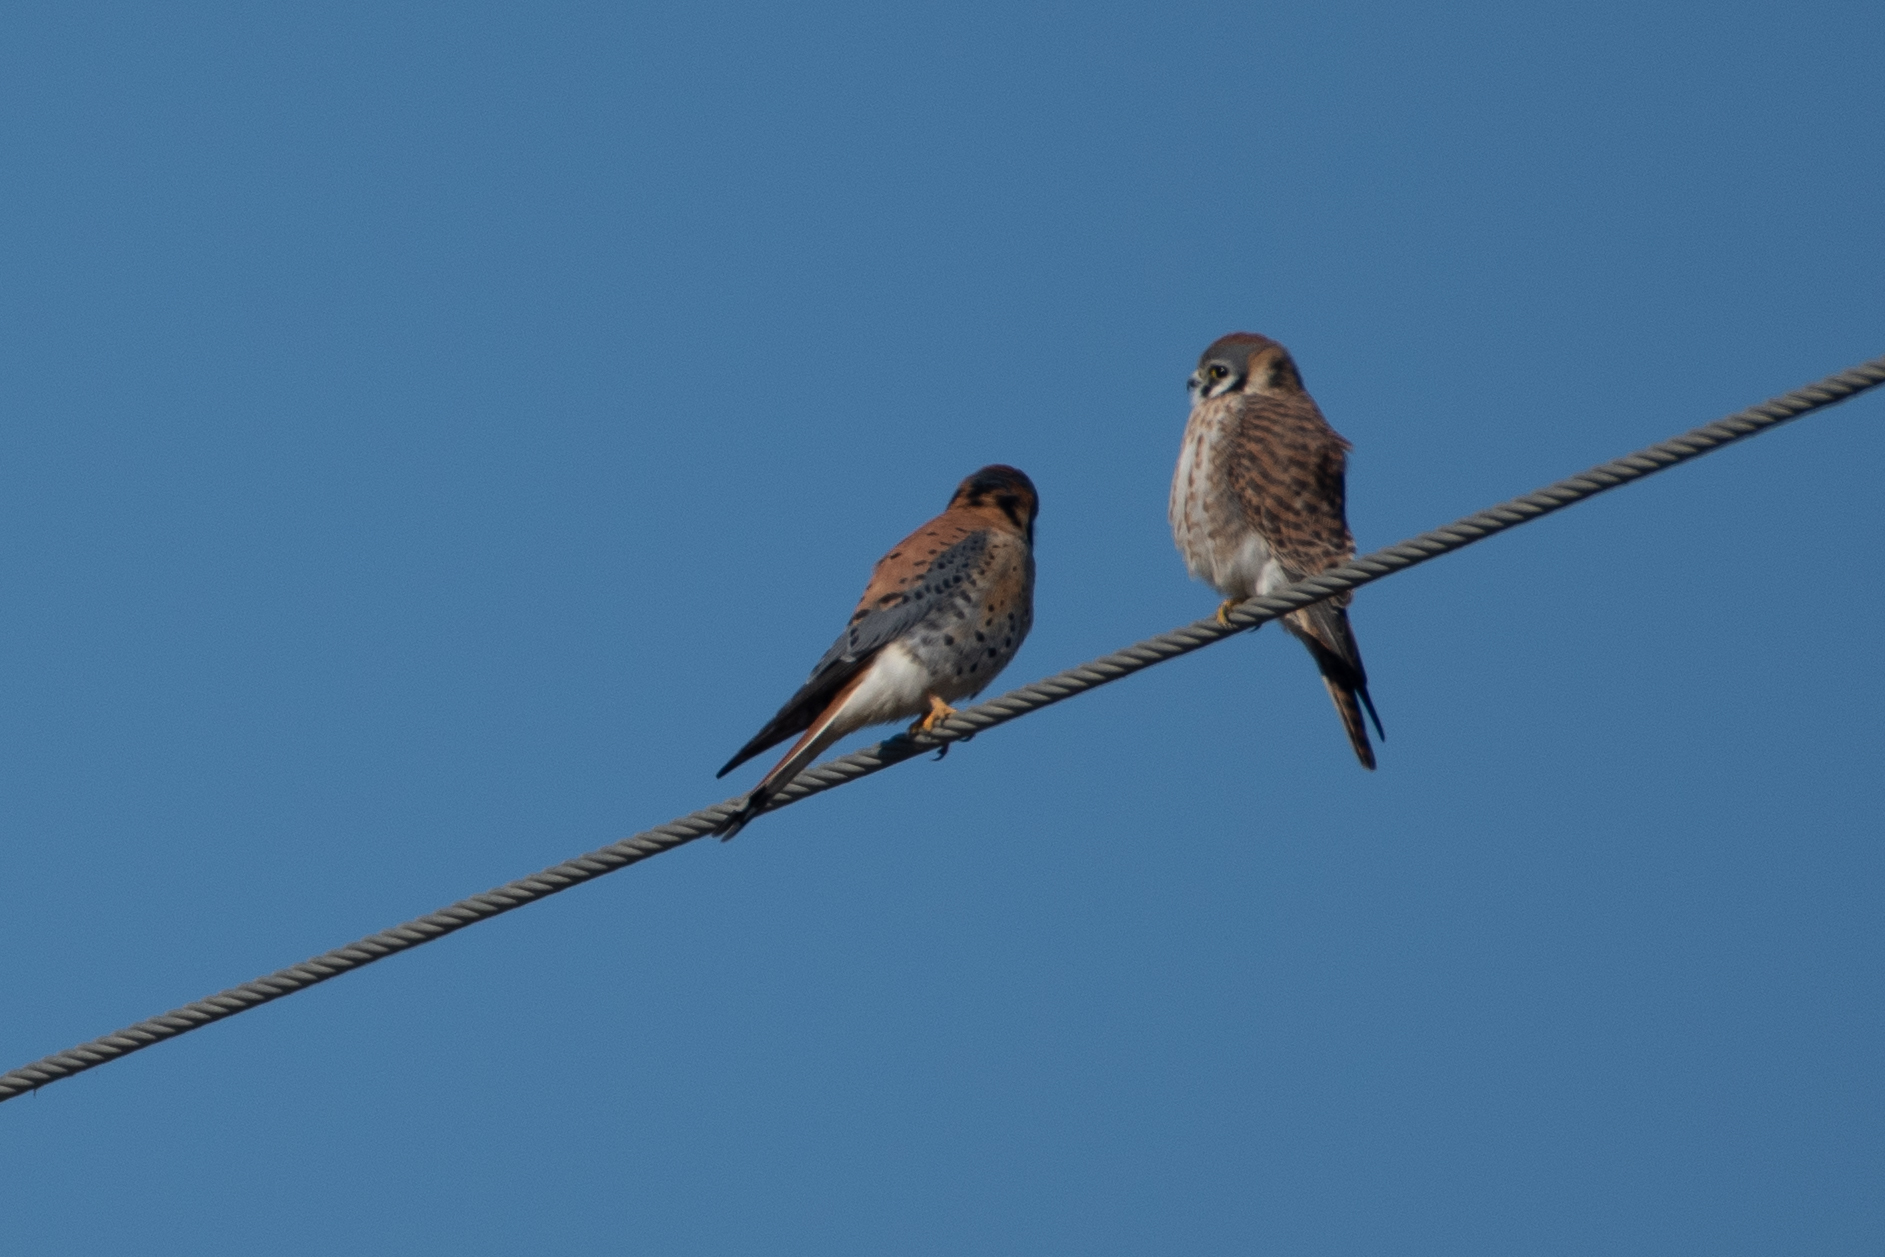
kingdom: Animalia
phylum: Chordata
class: Aves
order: Falconiformes
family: Falconidae
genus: Falco
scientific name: Falco sparverius
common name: American kestrel
